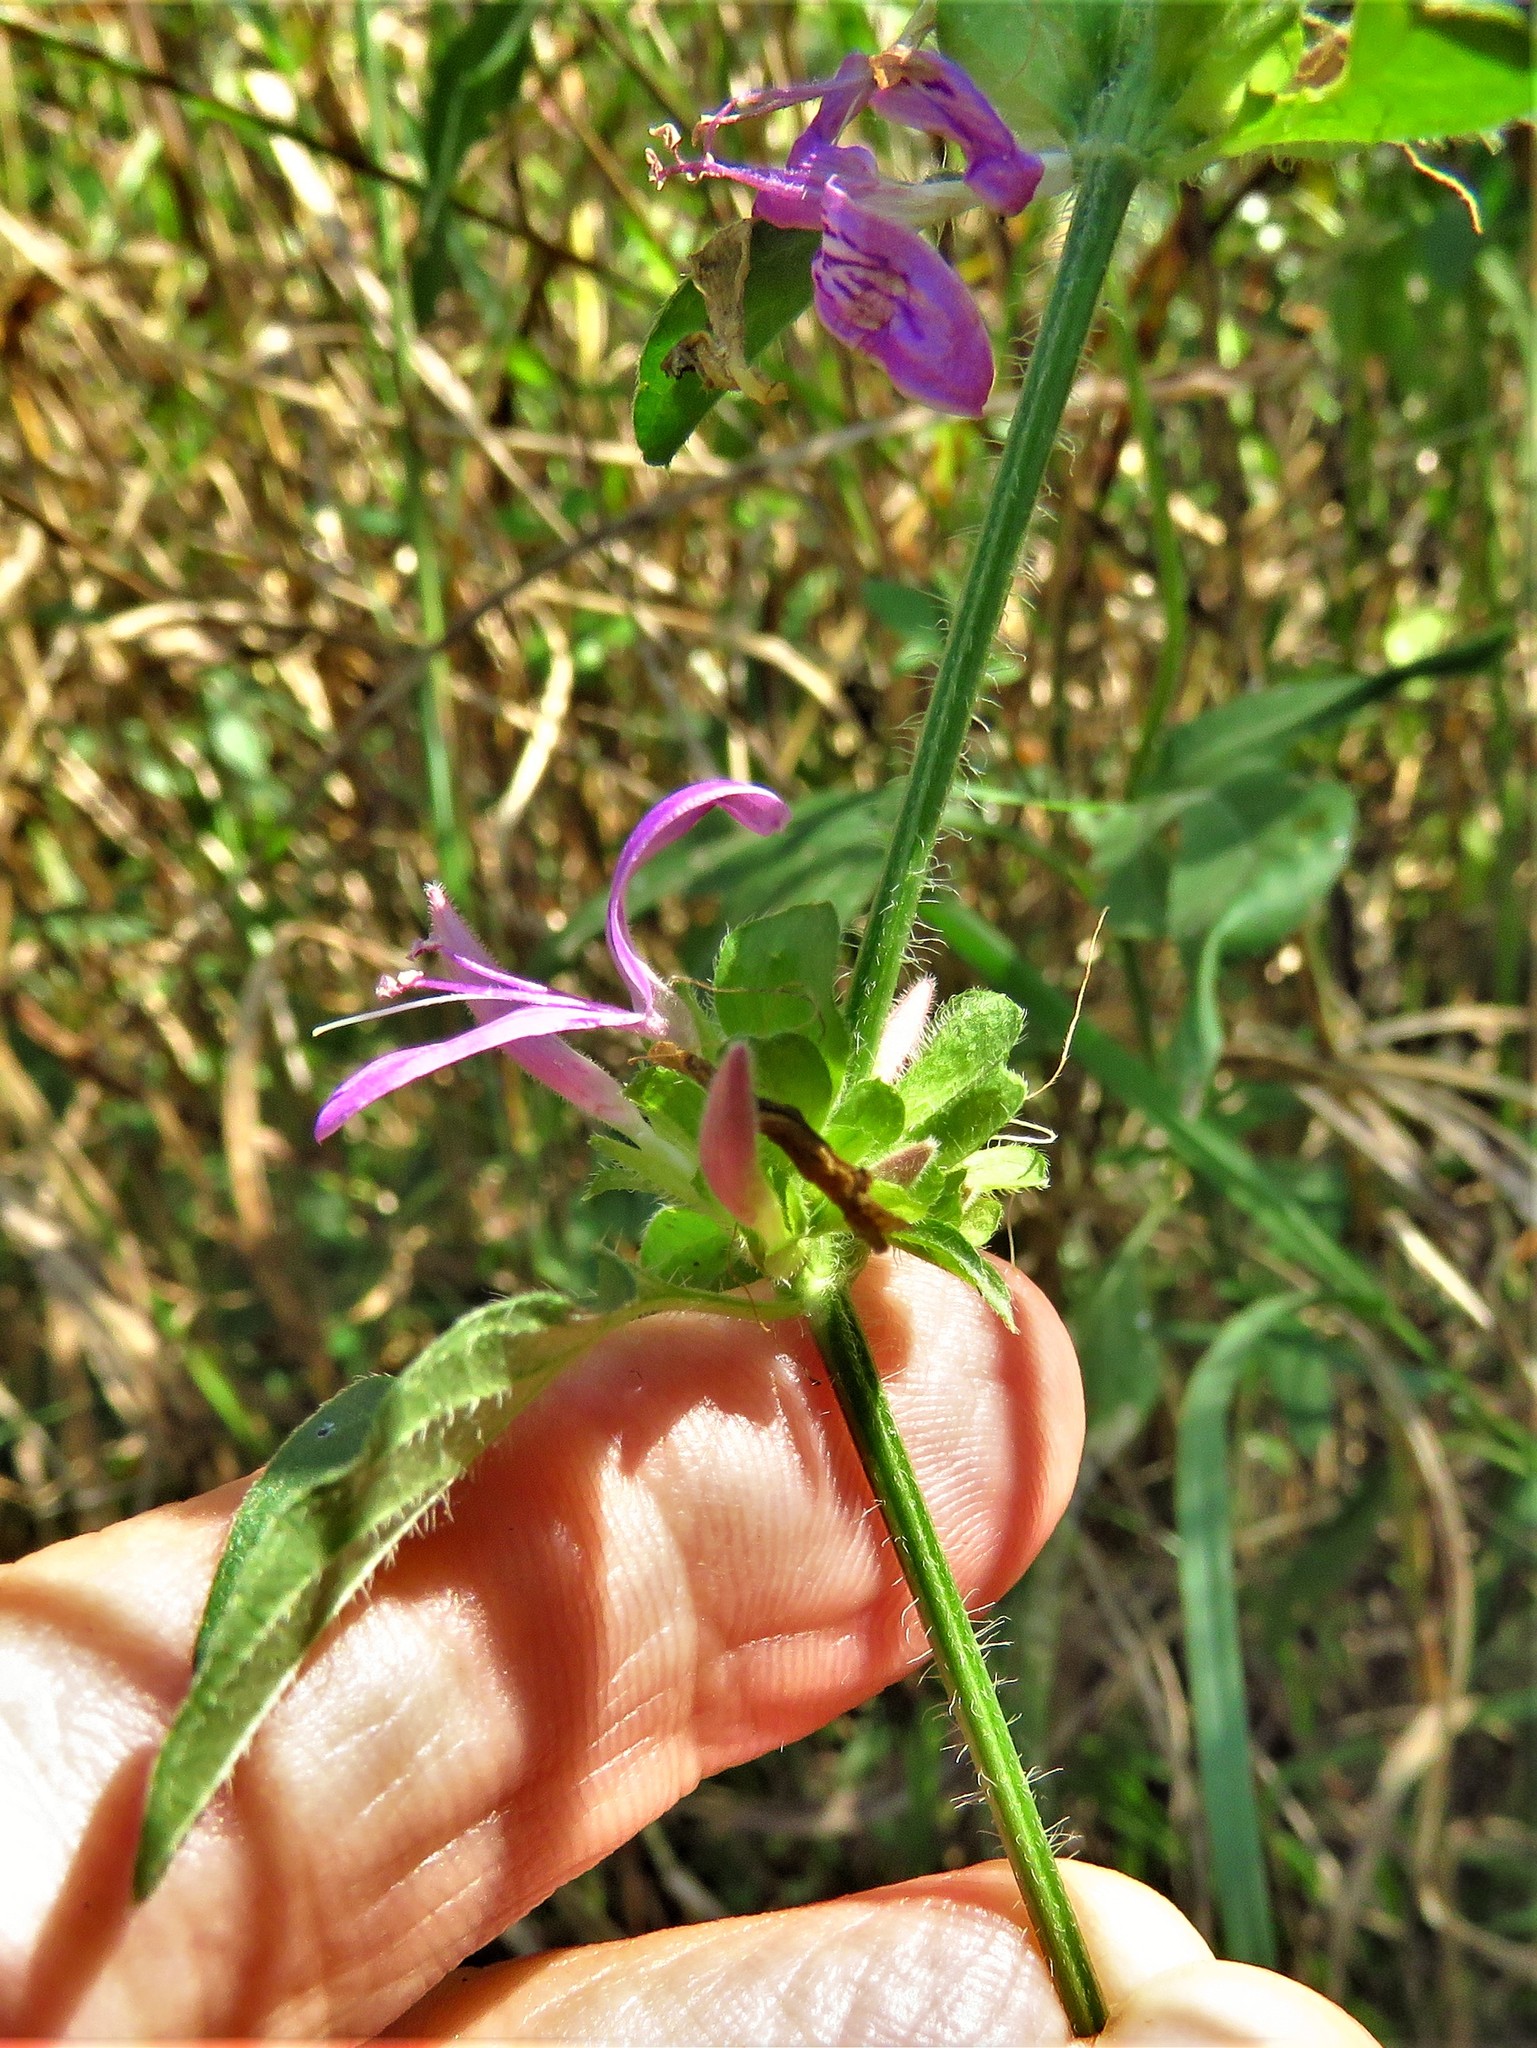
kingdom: Plantae
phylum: Tracheophyta
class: Magnoliopsida
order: Lamiales
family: Acanthaceae
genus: Dicliptera
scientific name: Dicliptera brachiata
